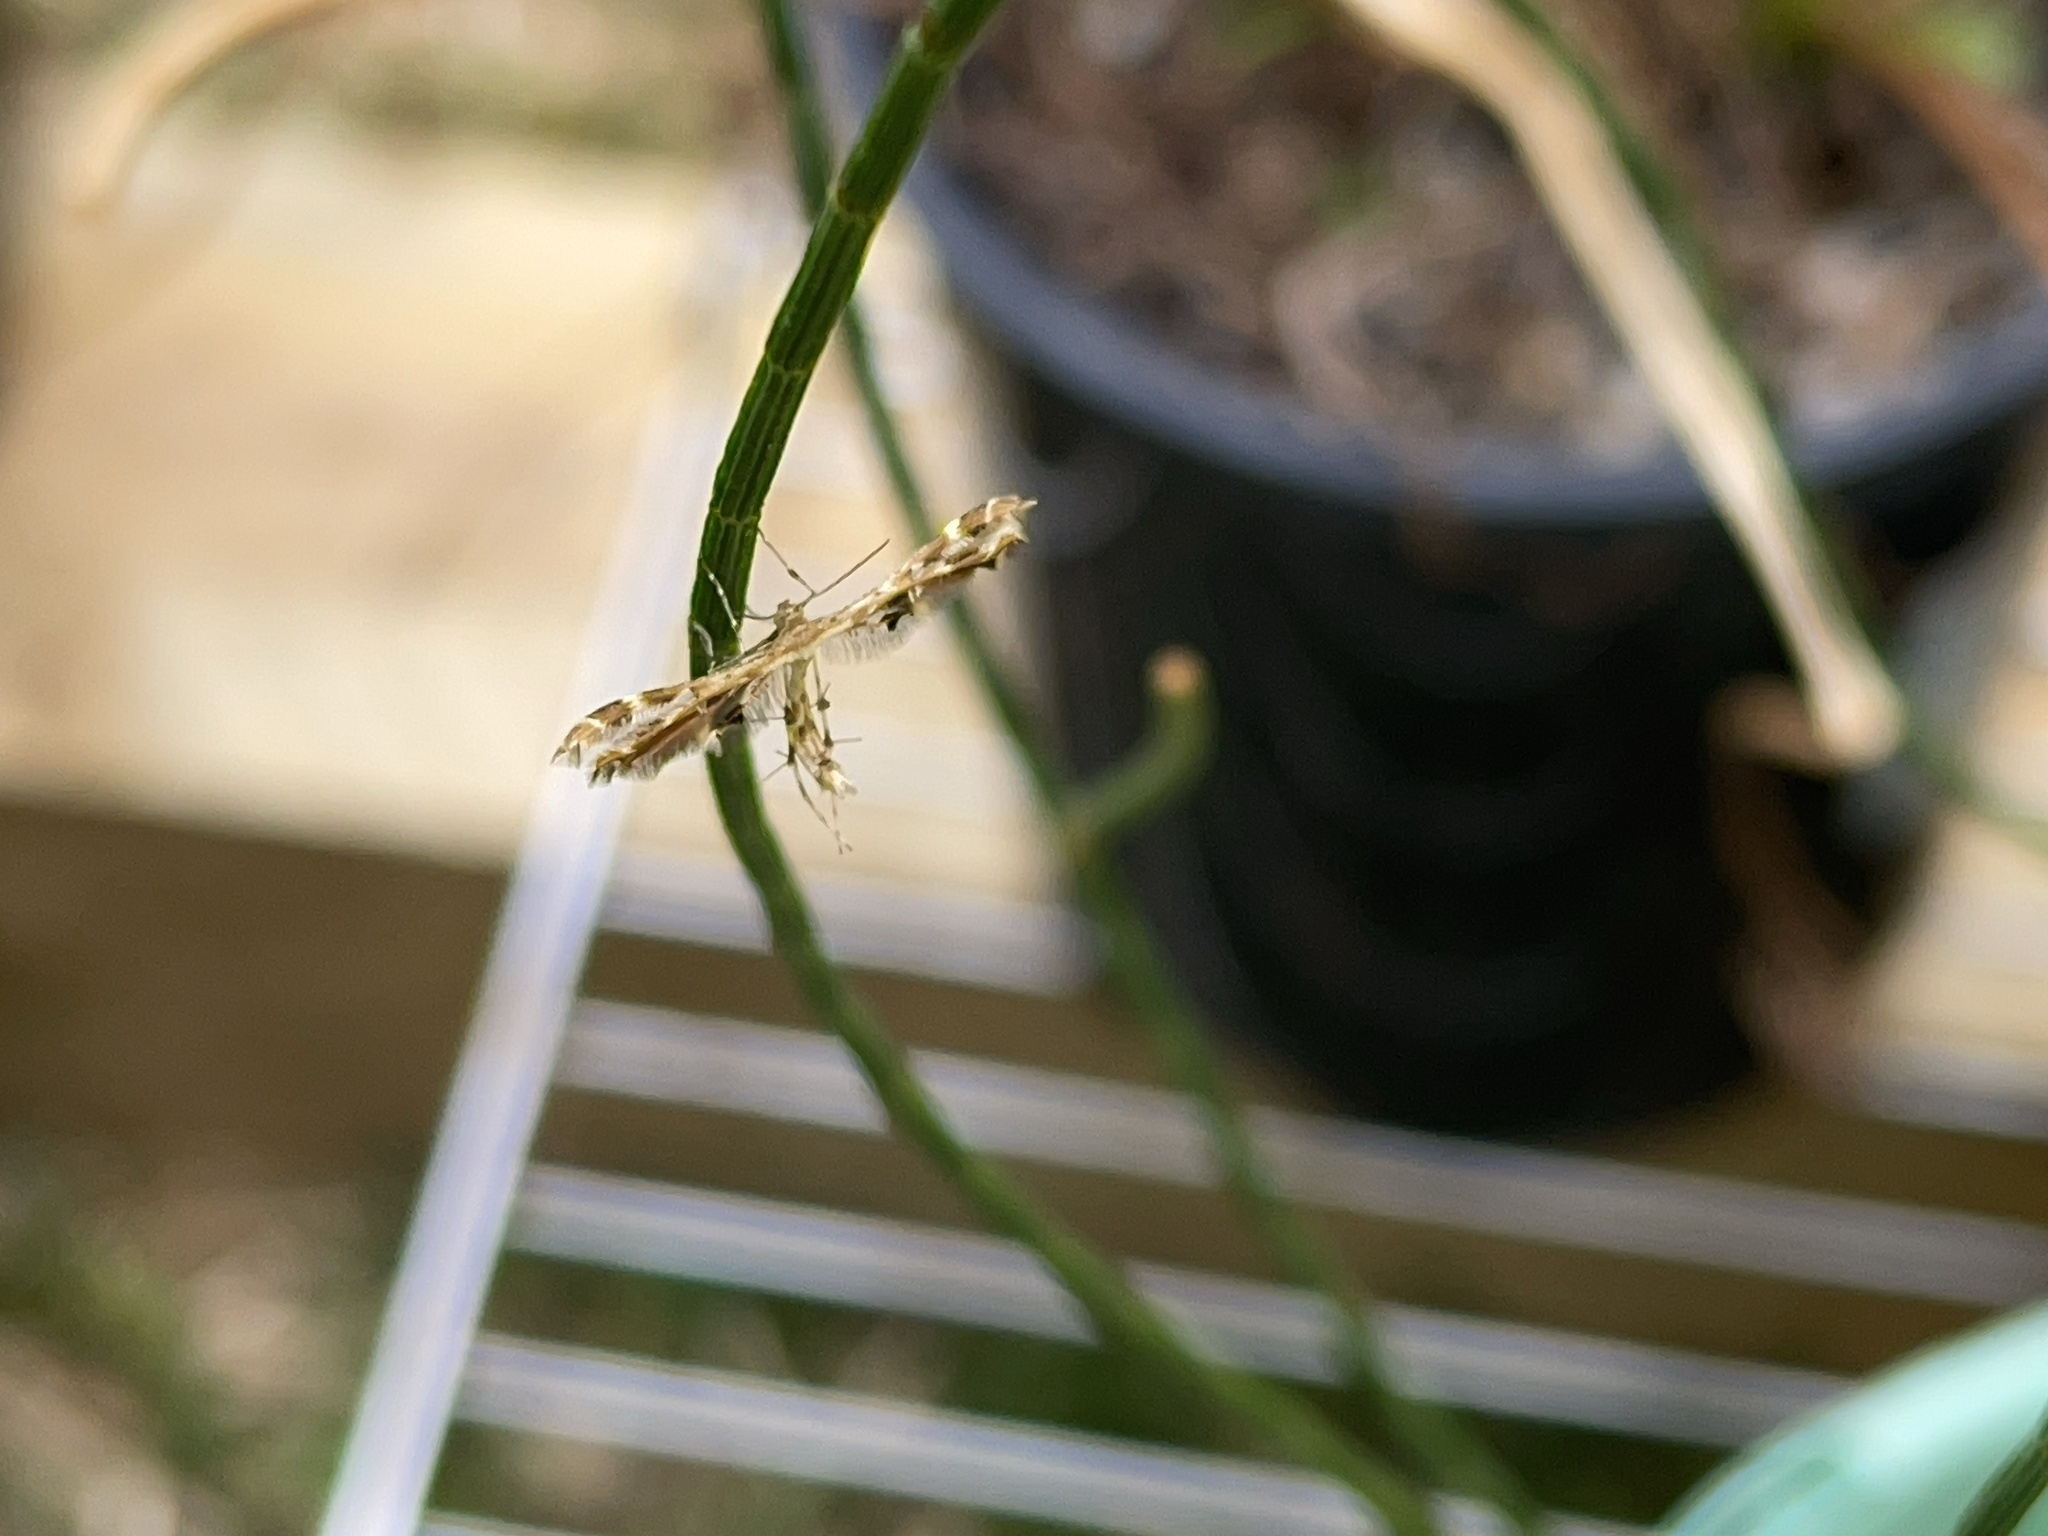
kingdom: Animalia
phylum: Arthropoda
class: Insecta
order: Lepidoptera
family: Pterophoridae
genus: Sphenarches
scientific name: Sphenarches anisodactylus
